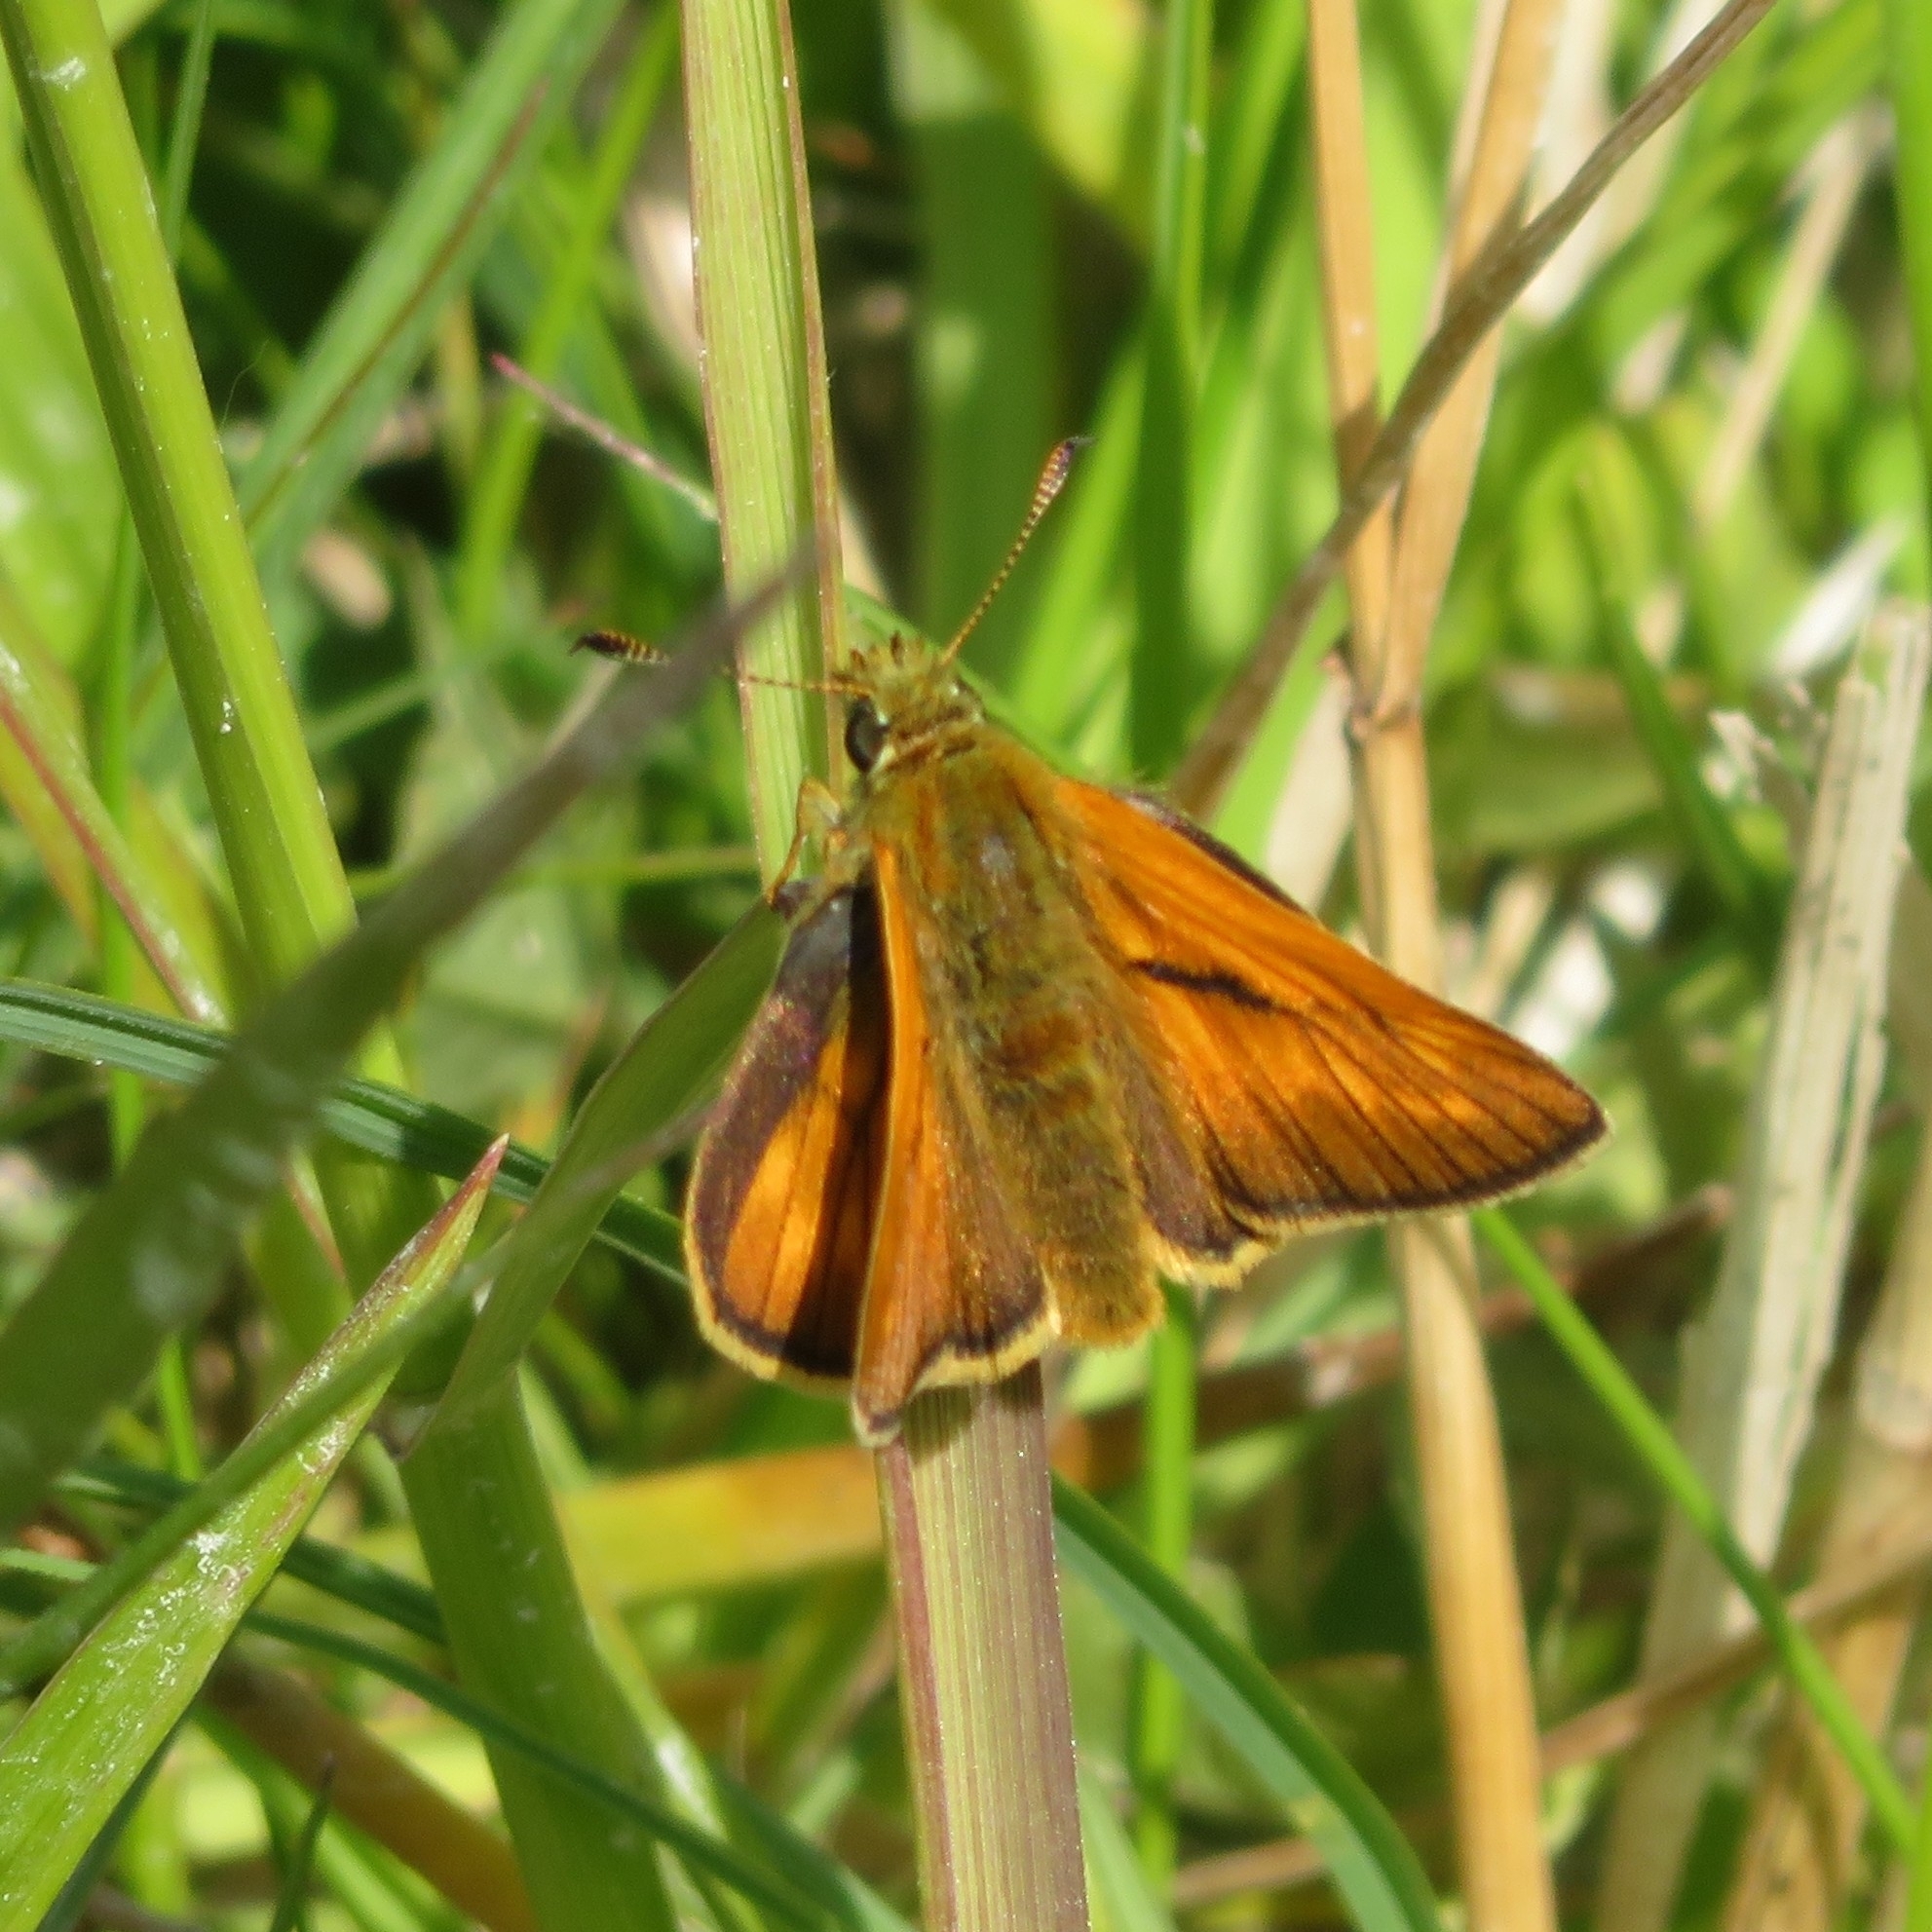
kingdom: Animalia
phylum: Arthropoda
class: Insecta
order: Lepidoptera
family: Hesperiidae
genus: Ochlodes
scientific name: Ochlodes venata
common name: Large skipper
